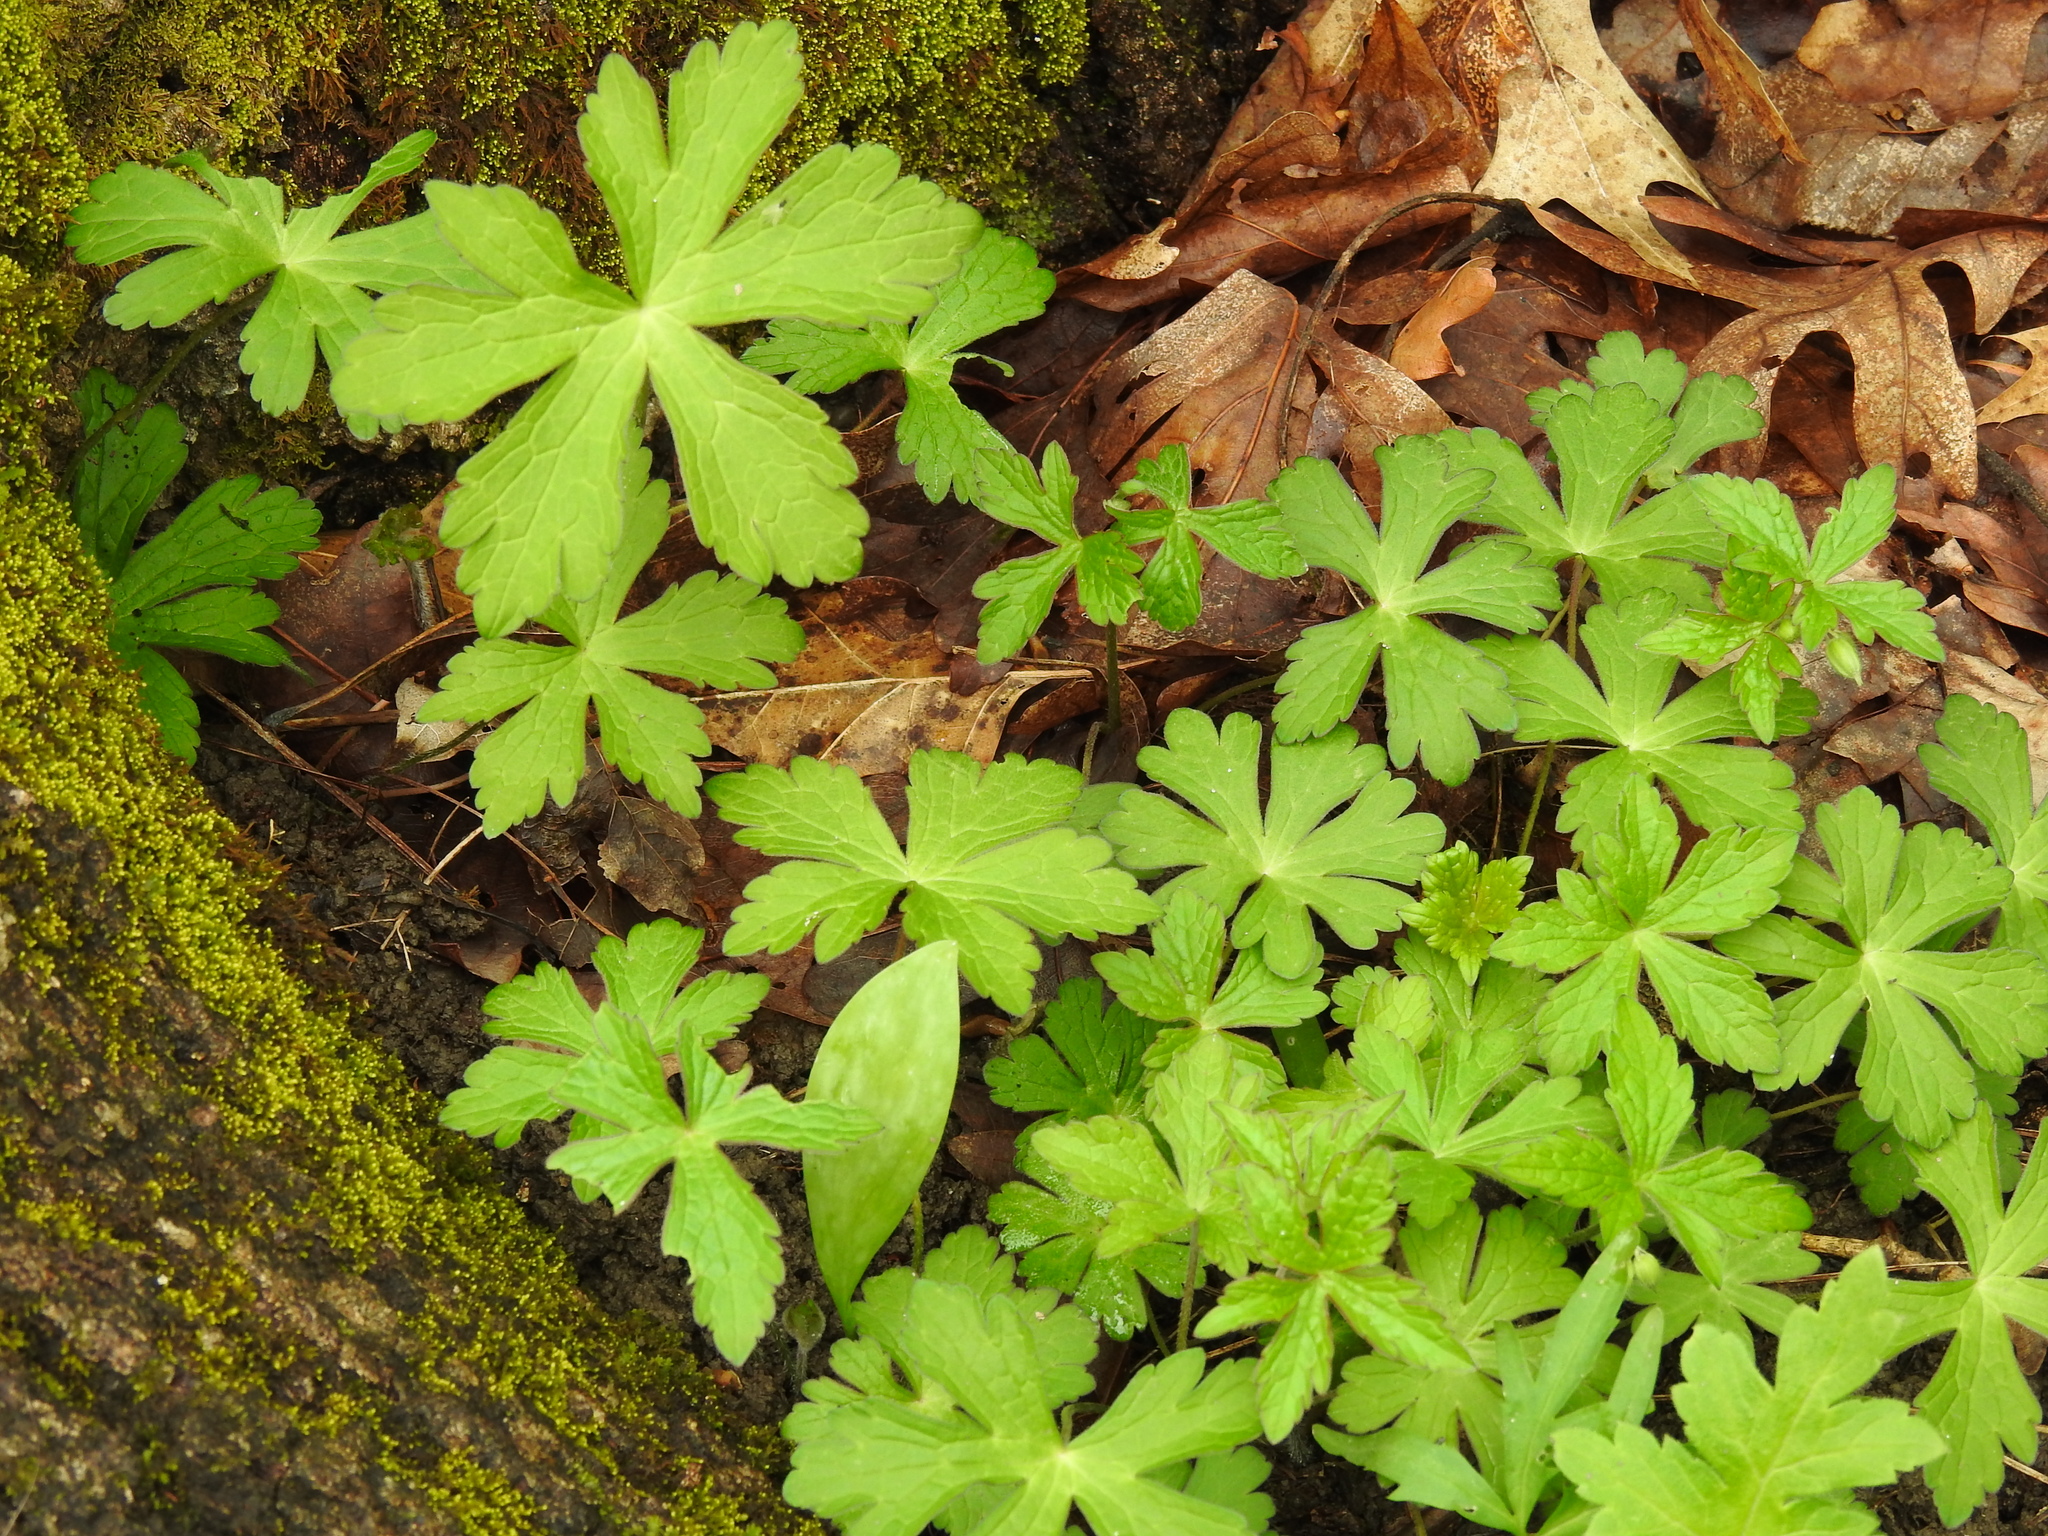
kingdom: Plantae
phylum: Tracheophyta
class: Magnoliopsida
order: Geraniales
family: Geraniaceae
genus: Geranium
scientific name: Geranium maculatum
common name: Spotted geranium
